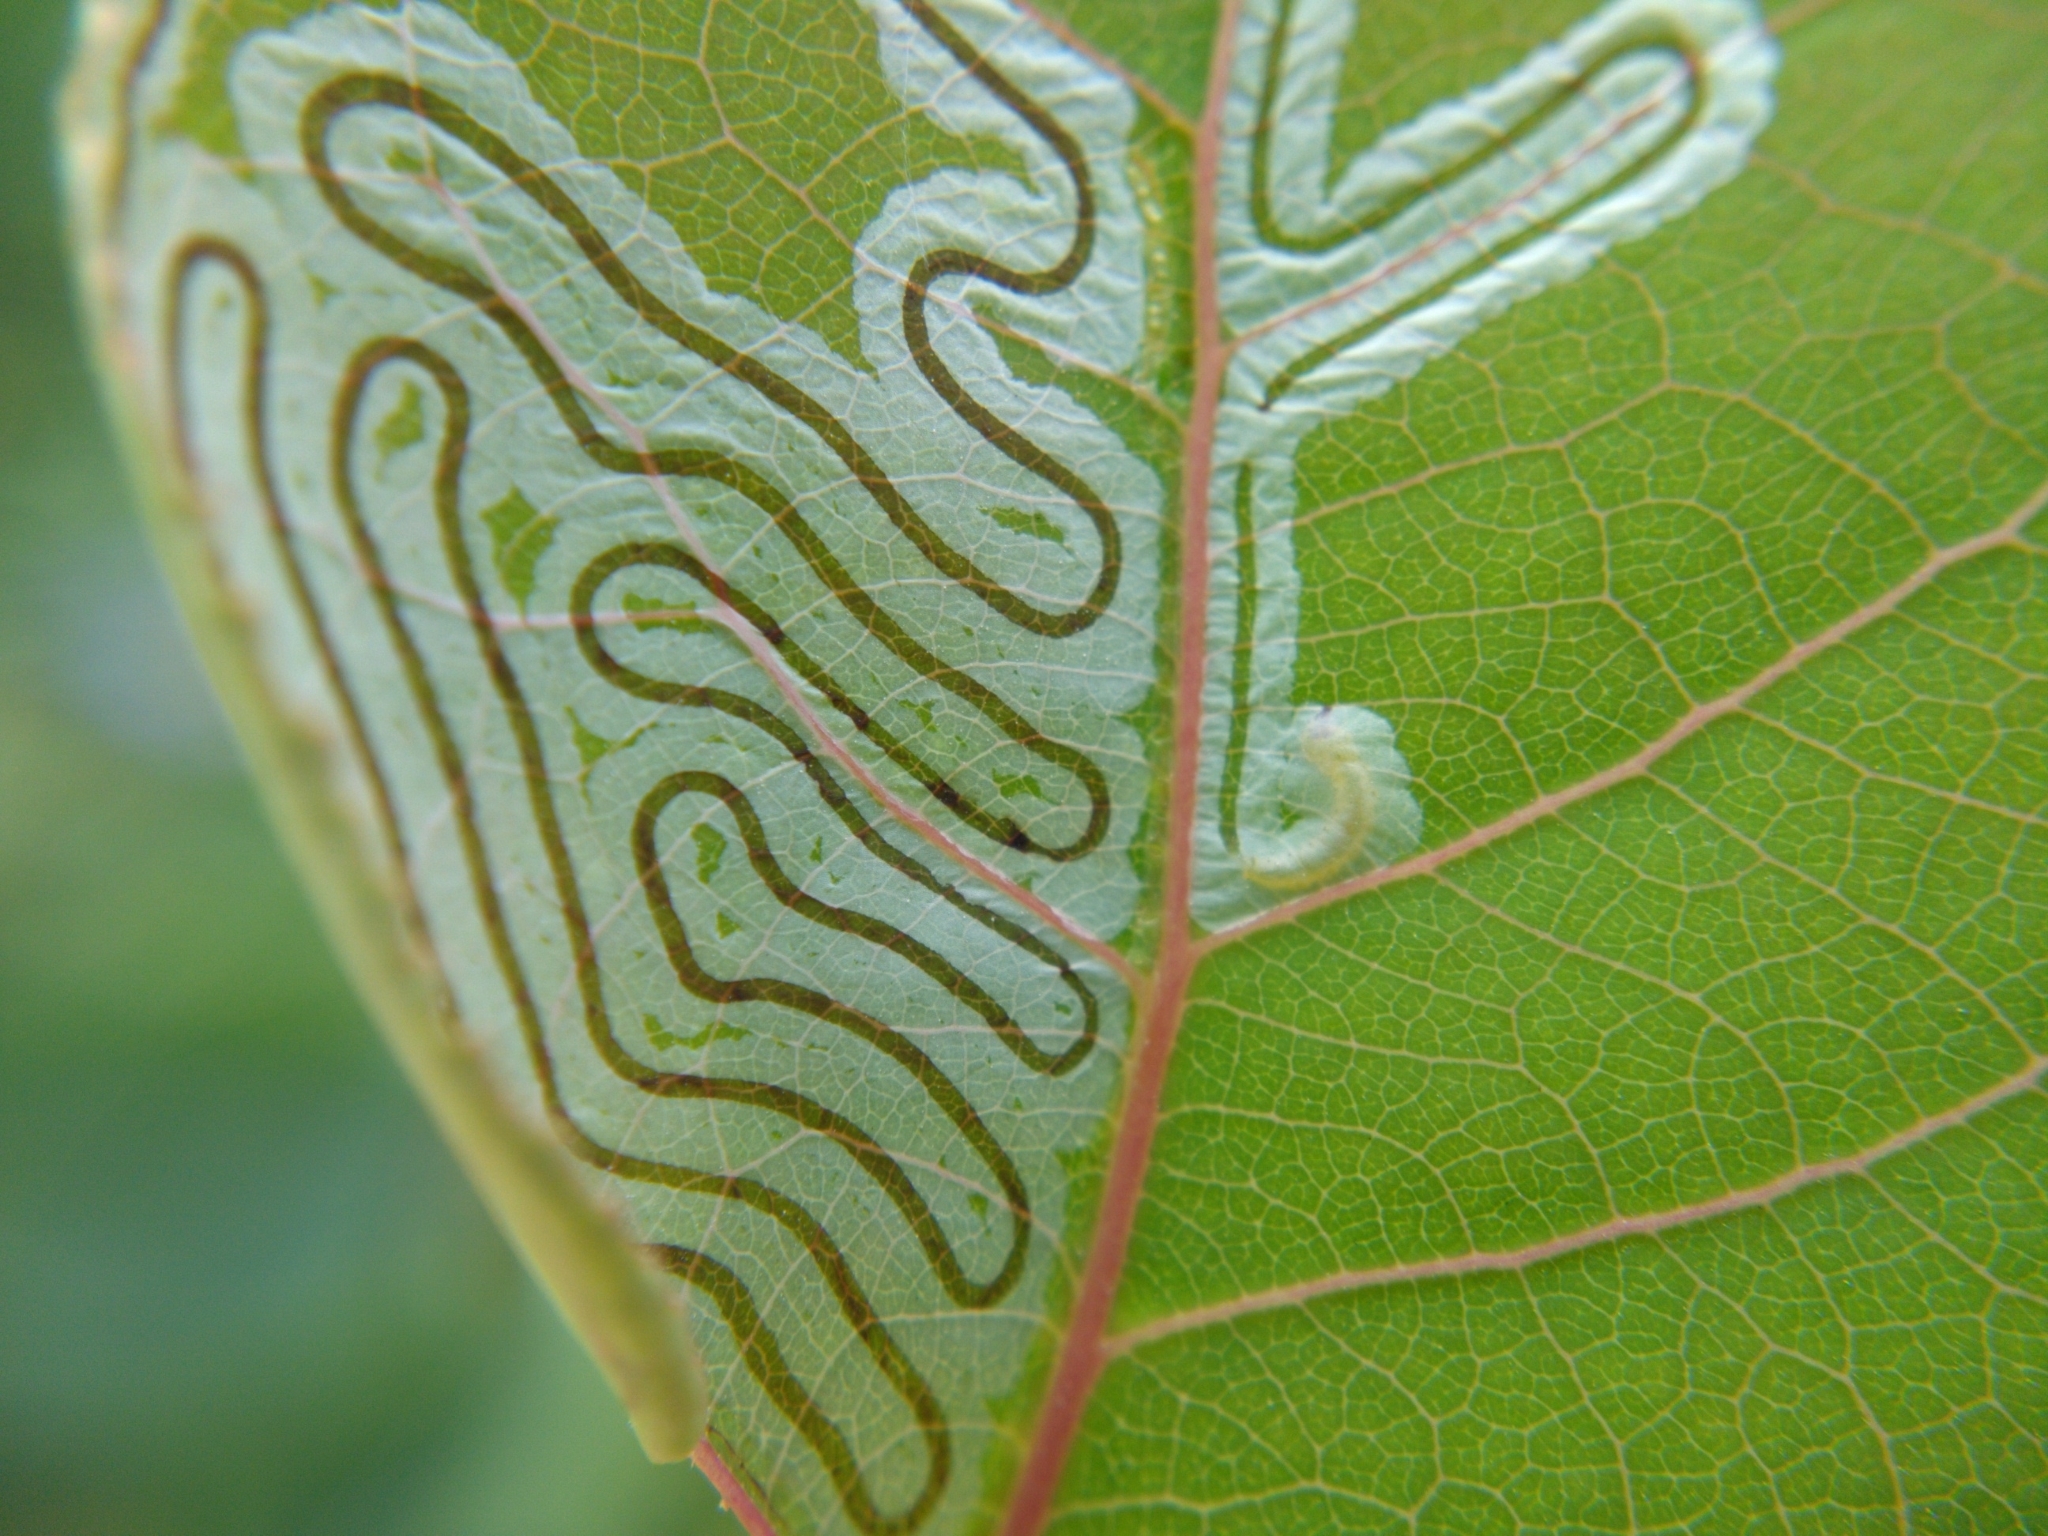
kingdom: Animalia
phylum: Arthropoda
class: Insecta
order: Lepidoptera
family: Gracillariidae
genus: Phyllocnistis
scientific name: Phyllocnistis populiella
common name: Aspen serpentine leafminer moth
